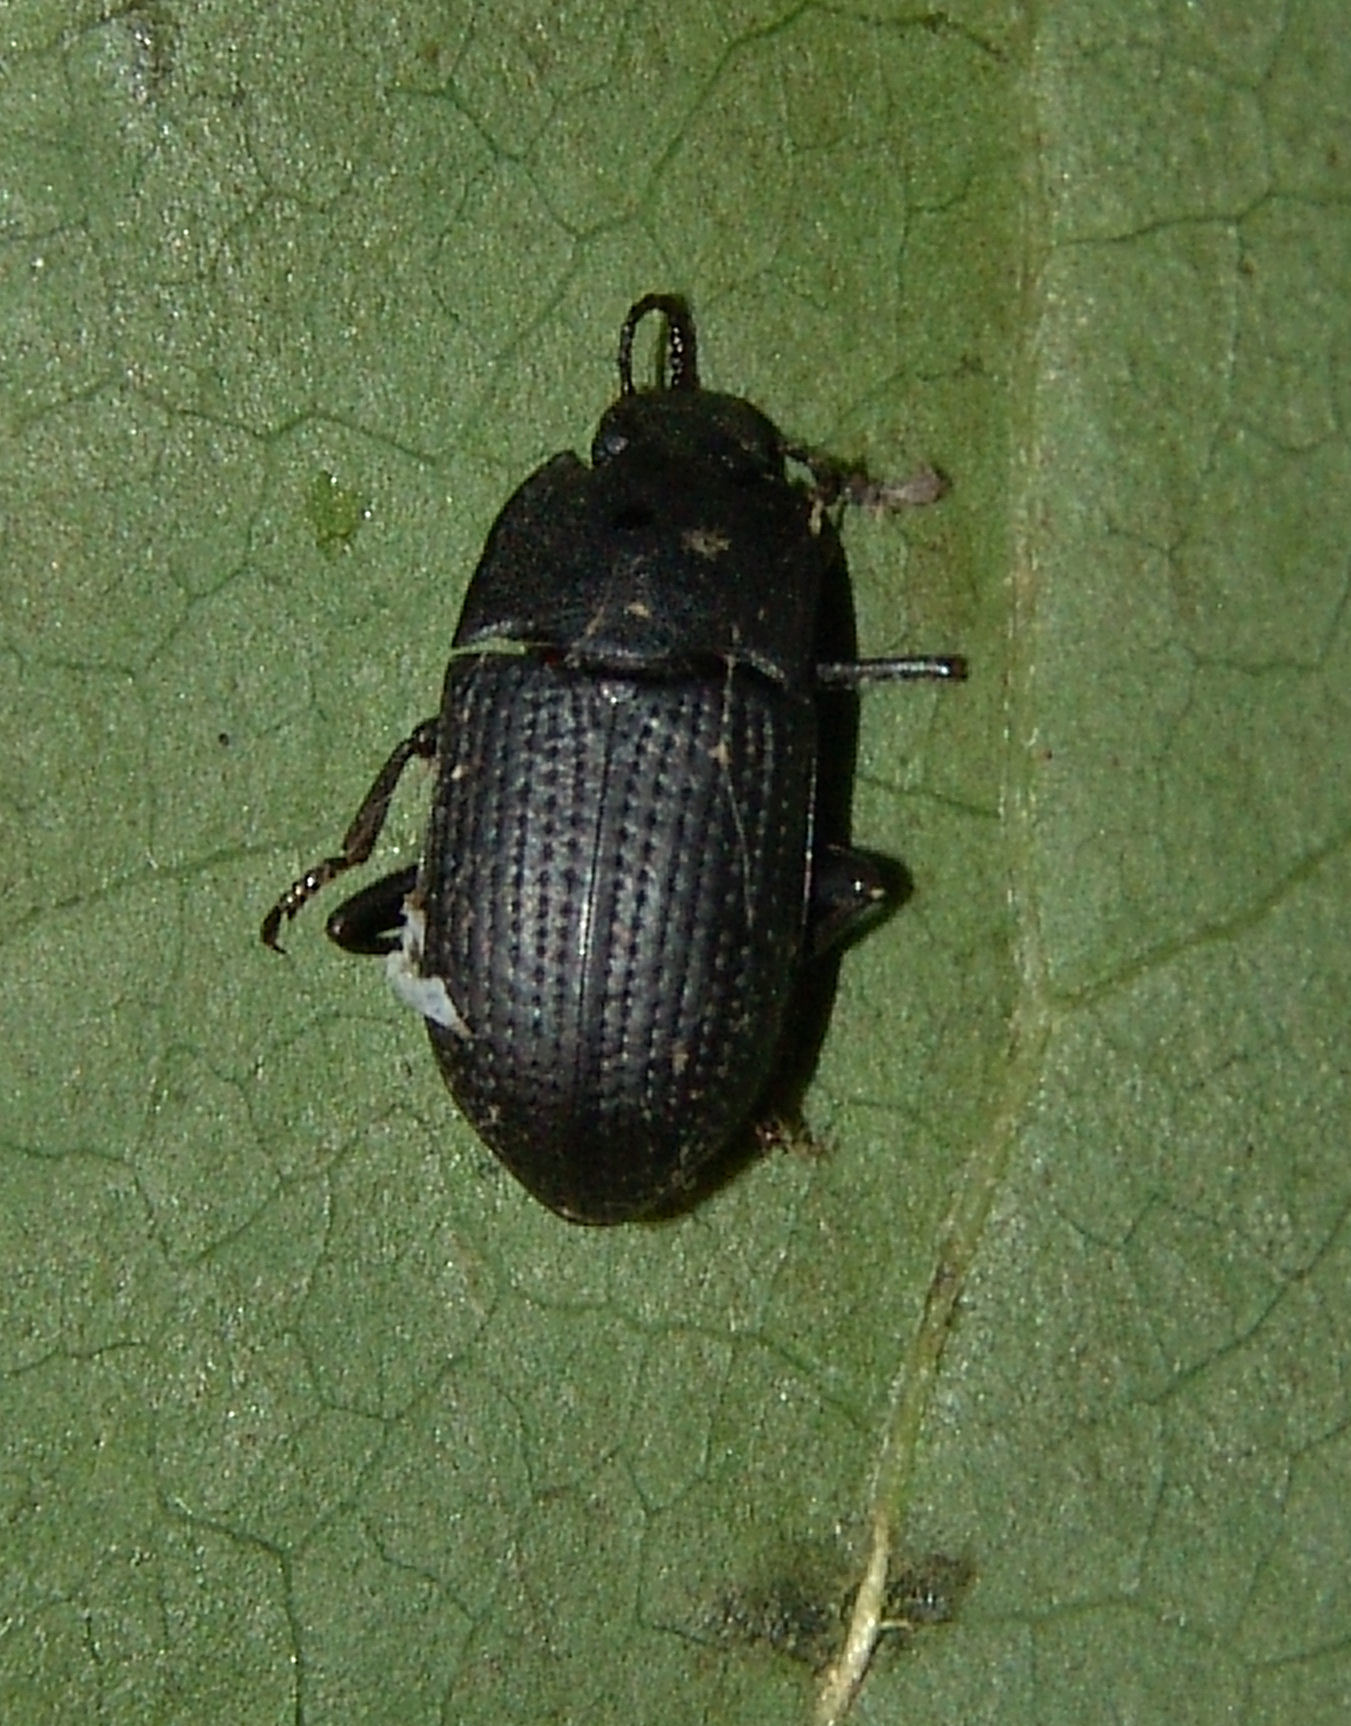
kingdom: Animalia
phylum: Arthropoda
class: Insecta
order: Coleoptera
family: Tenebrionidae
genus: Asiopus
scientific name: Asiopus
